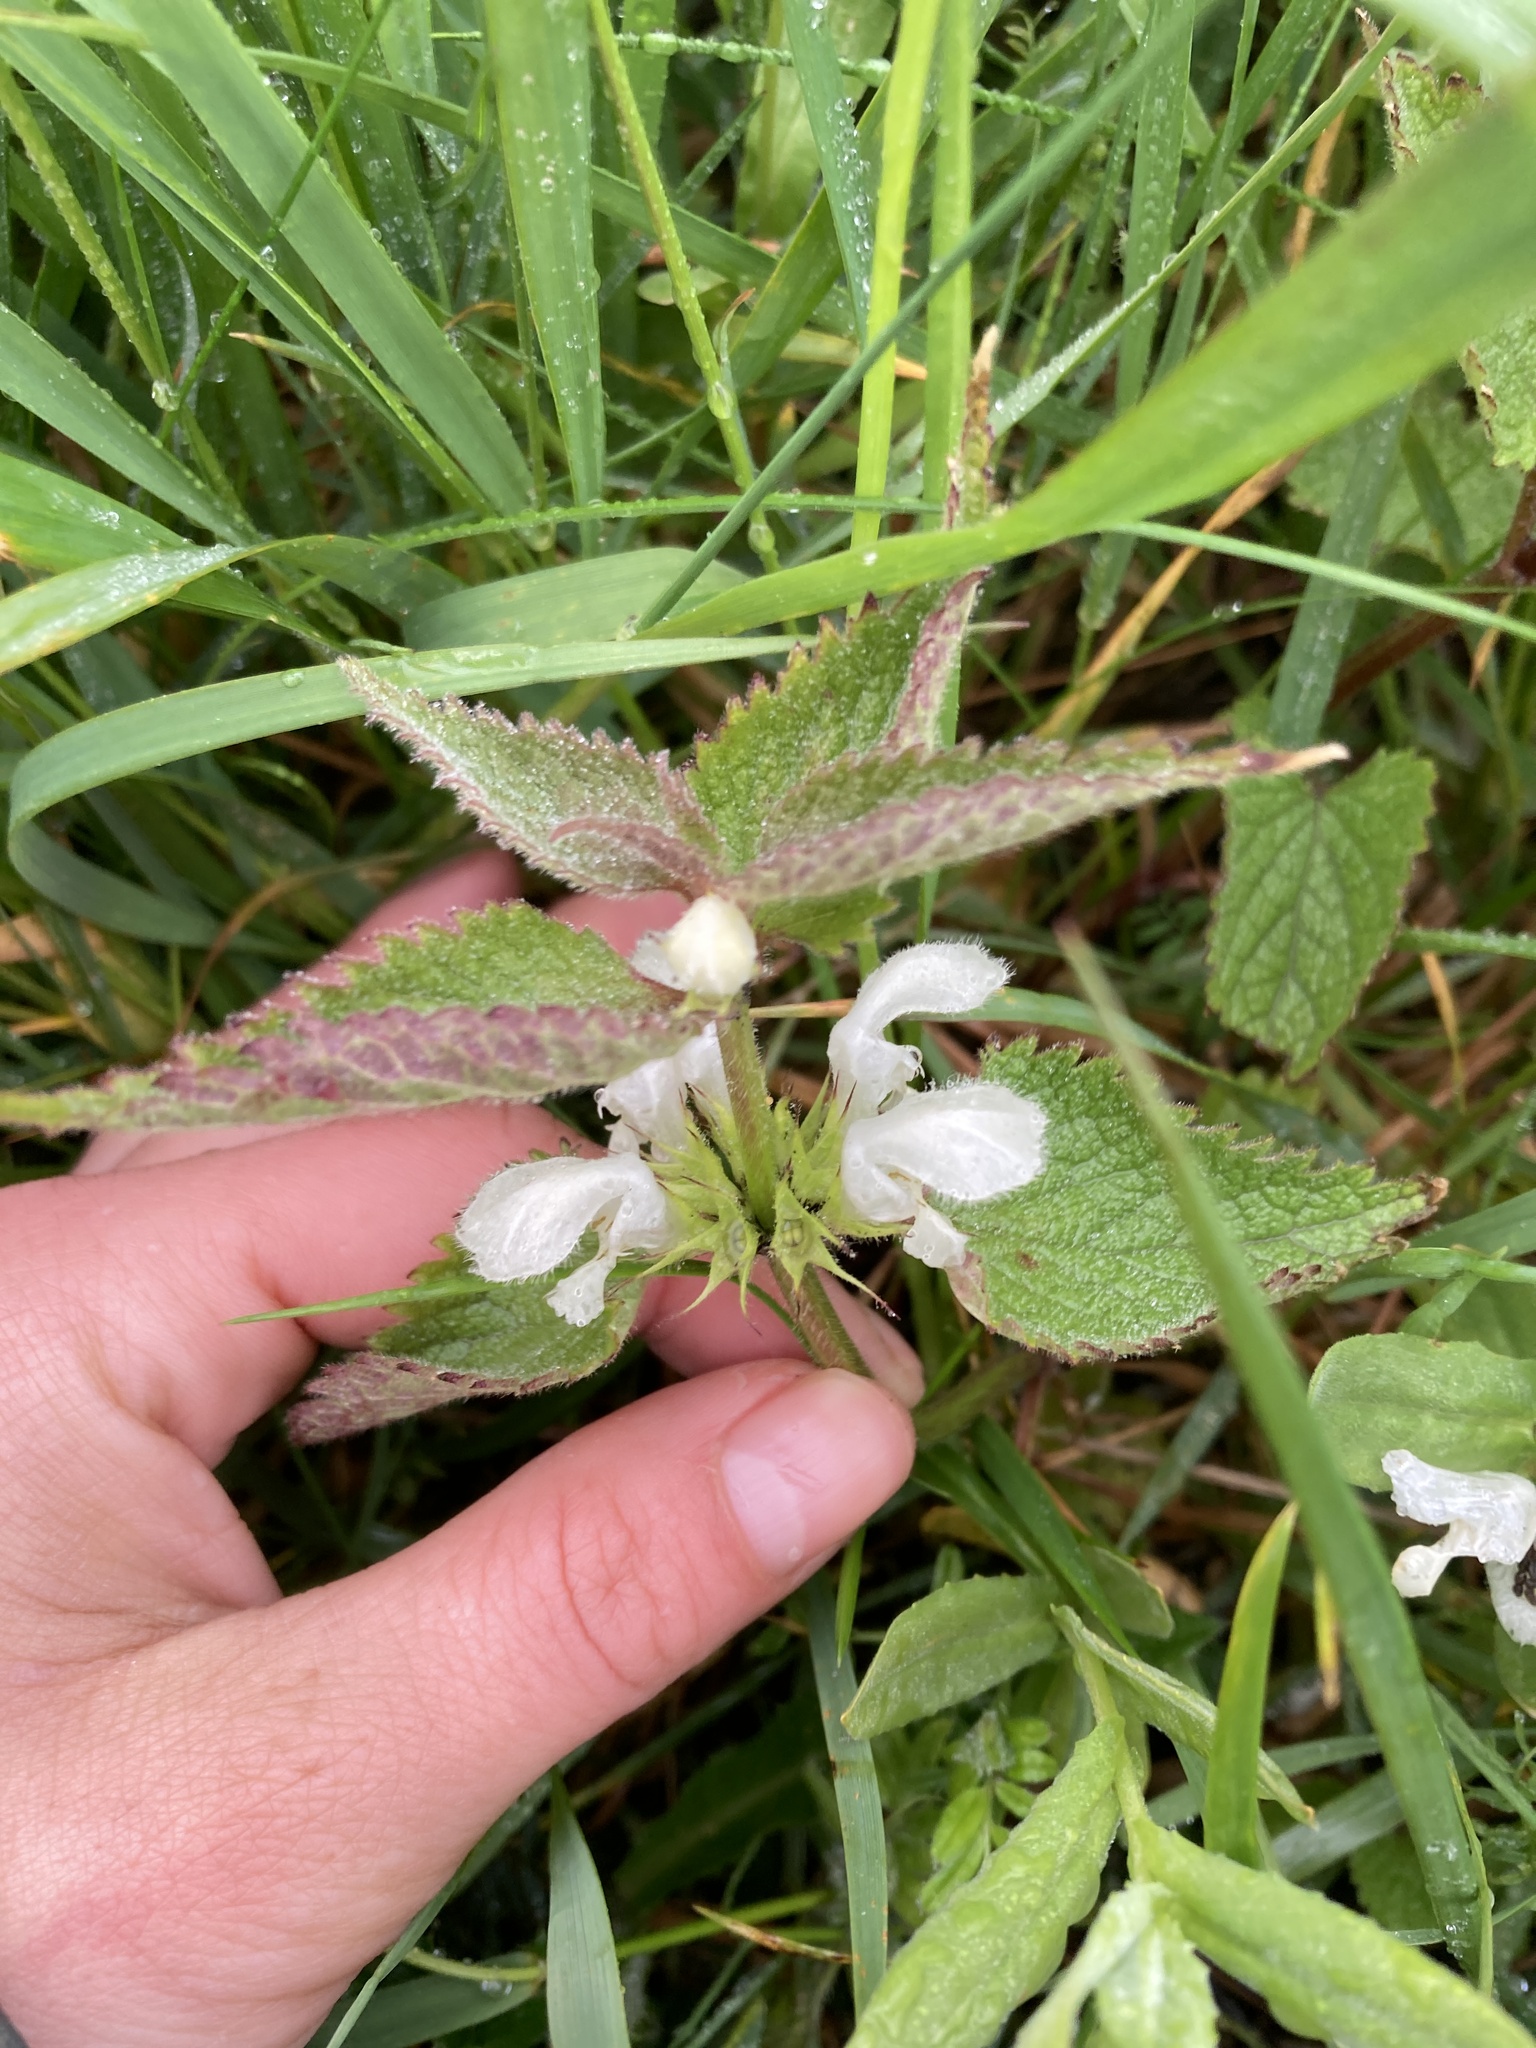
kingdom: Plantae
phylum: Tracheophyta
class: Magnoliopsida
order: Lamiales
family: Lamiaceae
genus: Lamium
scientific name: Lamium album
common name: White dead-nettle
